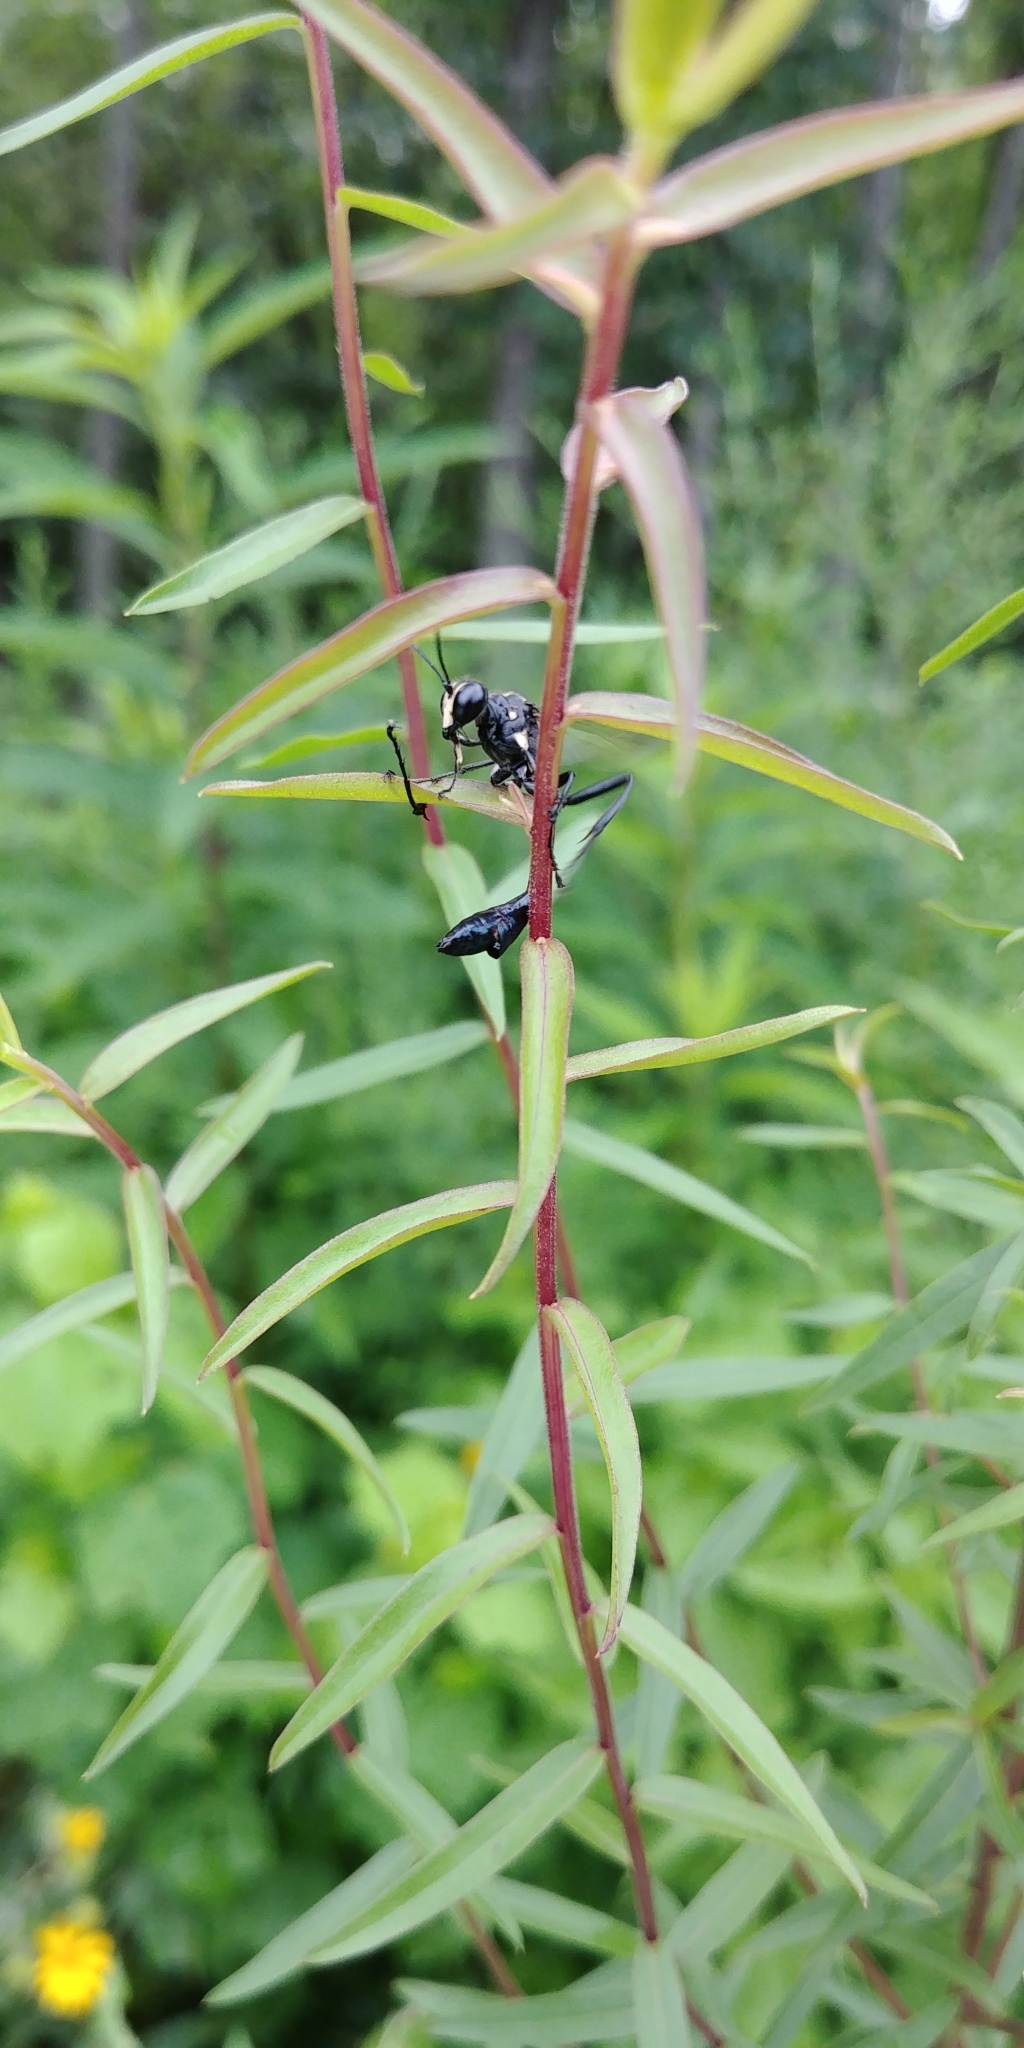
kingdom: Animalia
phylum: Arthropoda
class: Insecta
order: Hymenoptera
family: Sphecidae
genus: Eremnophila
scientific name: Eremnophila aureonotata
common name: Gold-marked thread-waisted wasp
